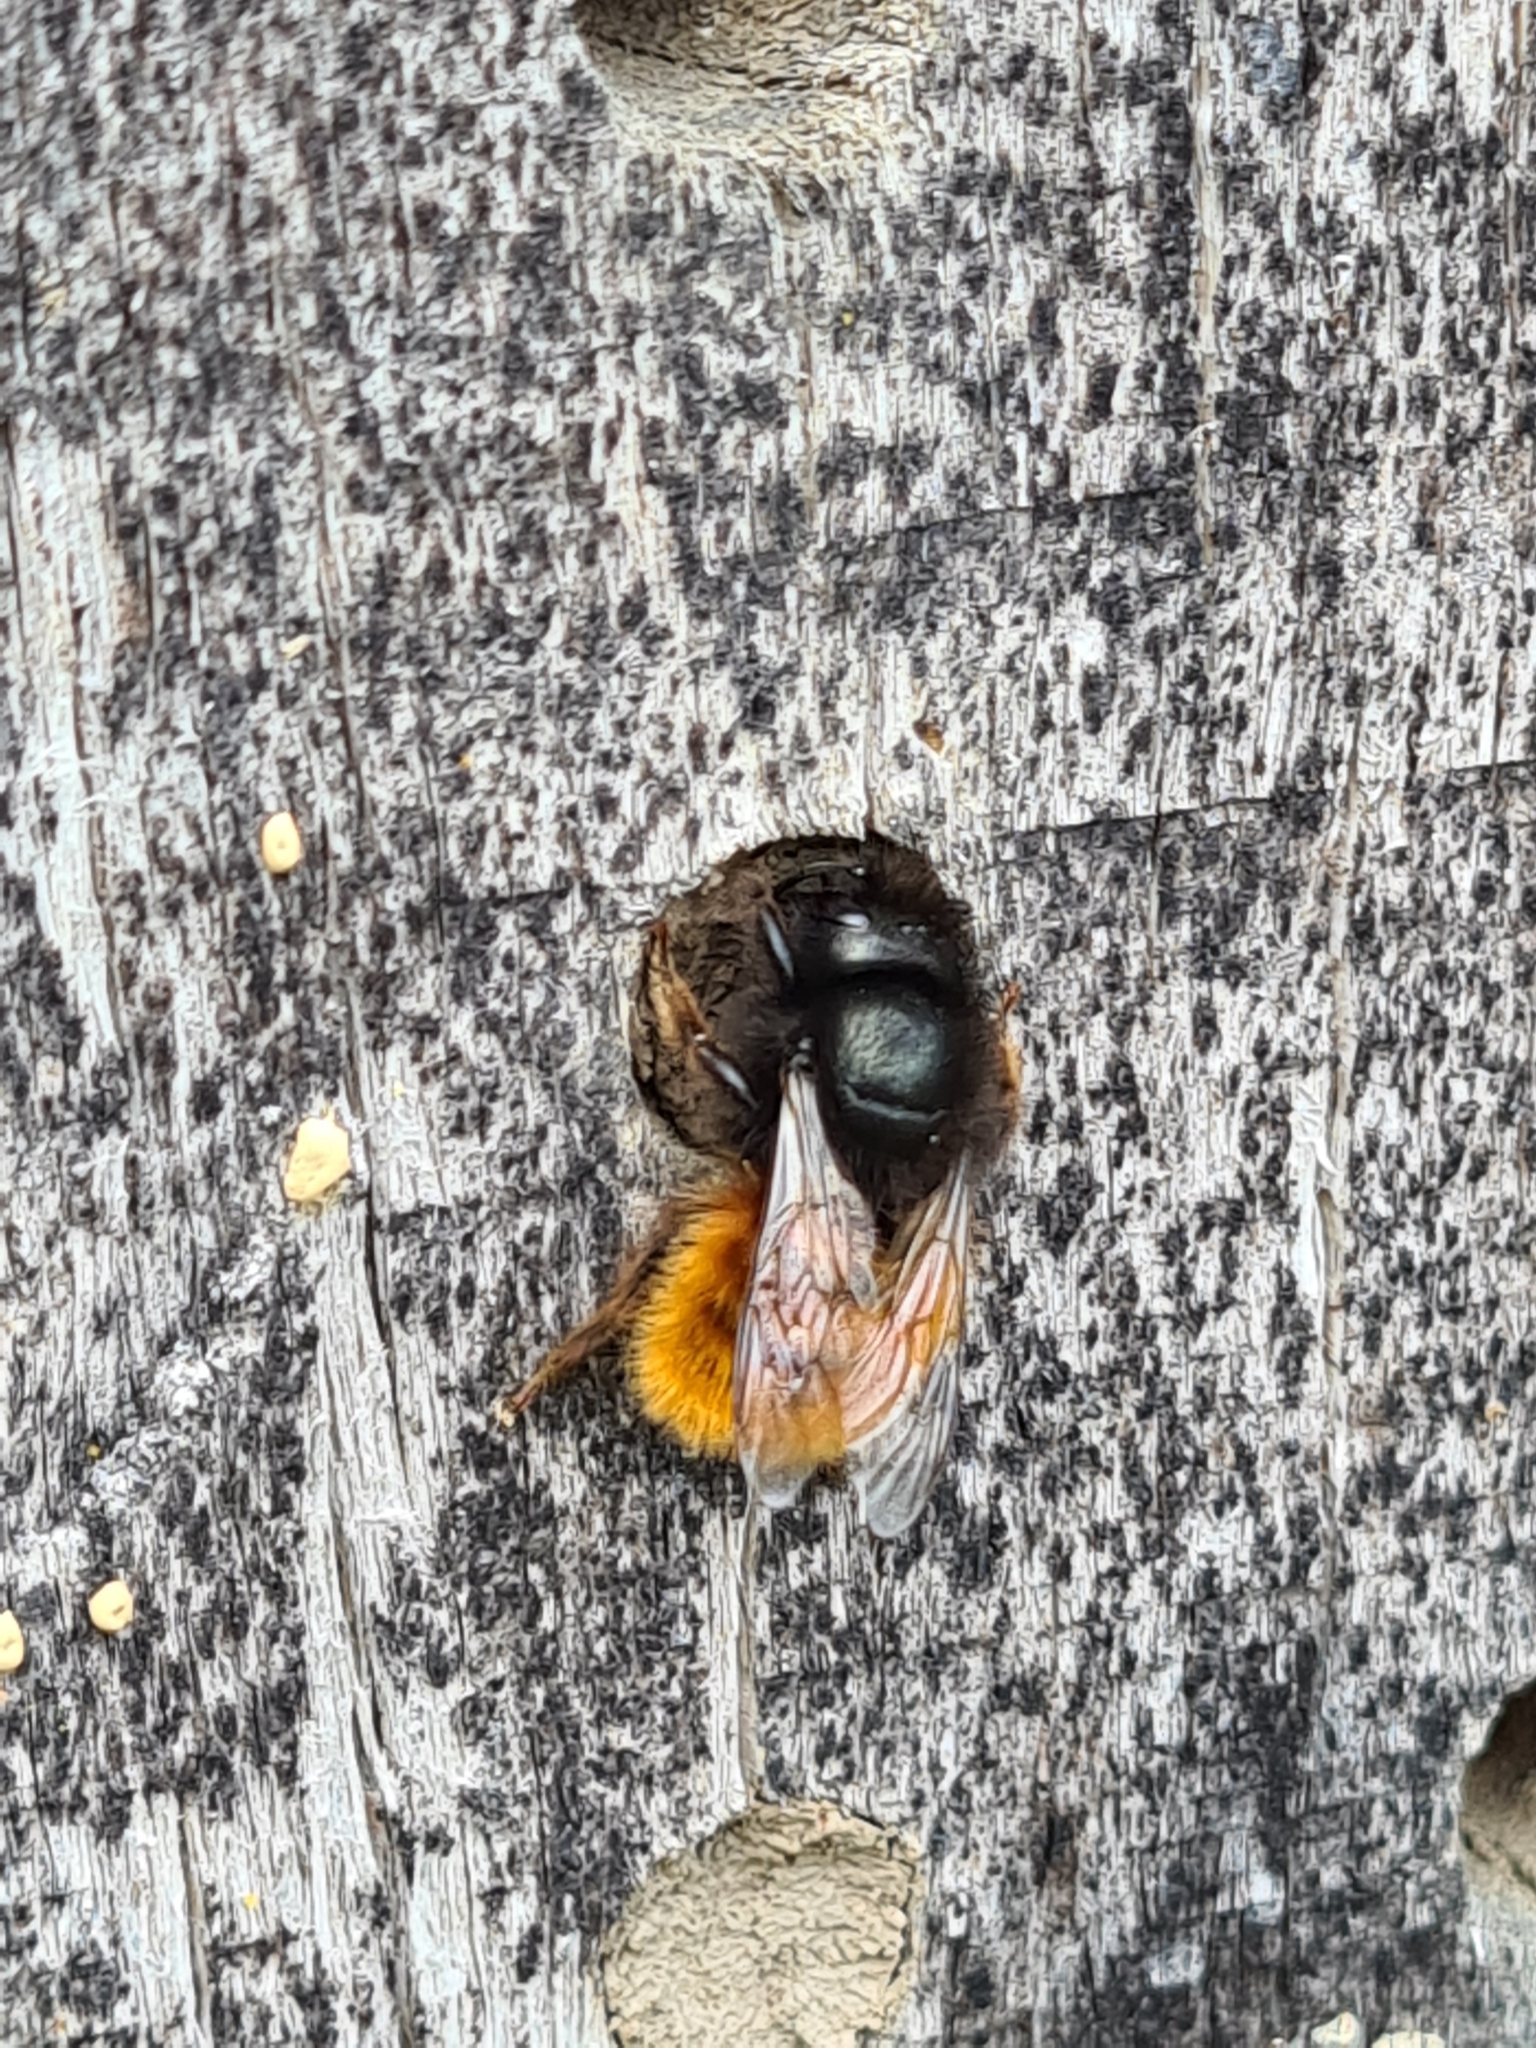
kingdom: Animalia
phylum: Arthropoda
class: Insecta
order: Hymenoptera
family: Megachilidae
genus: Osmia
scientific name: Osmia cornuta
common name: Mason bee
